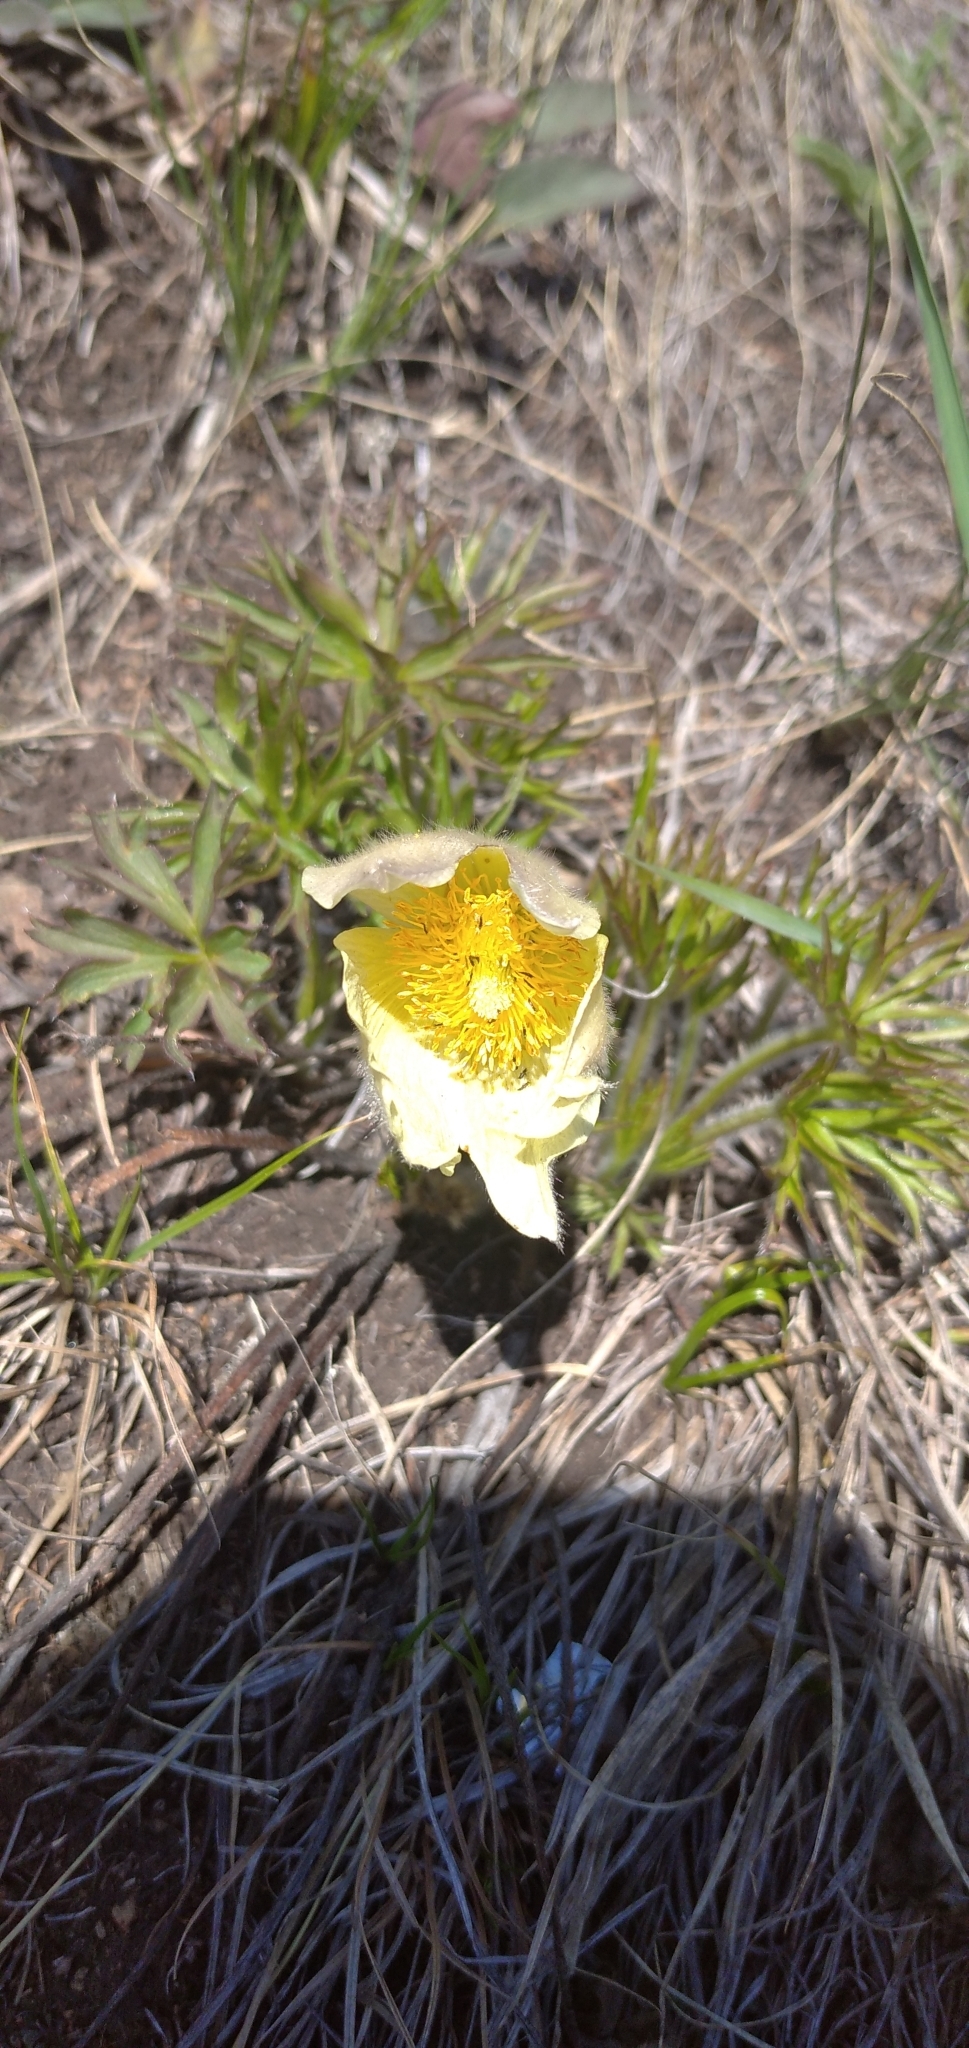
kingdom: Plantae
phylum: Tracheophyta
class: Magnoliopsida
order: Ranunculales
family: Ranunculaceae
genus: Pulsatilla
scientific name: Pulsatilla patens
